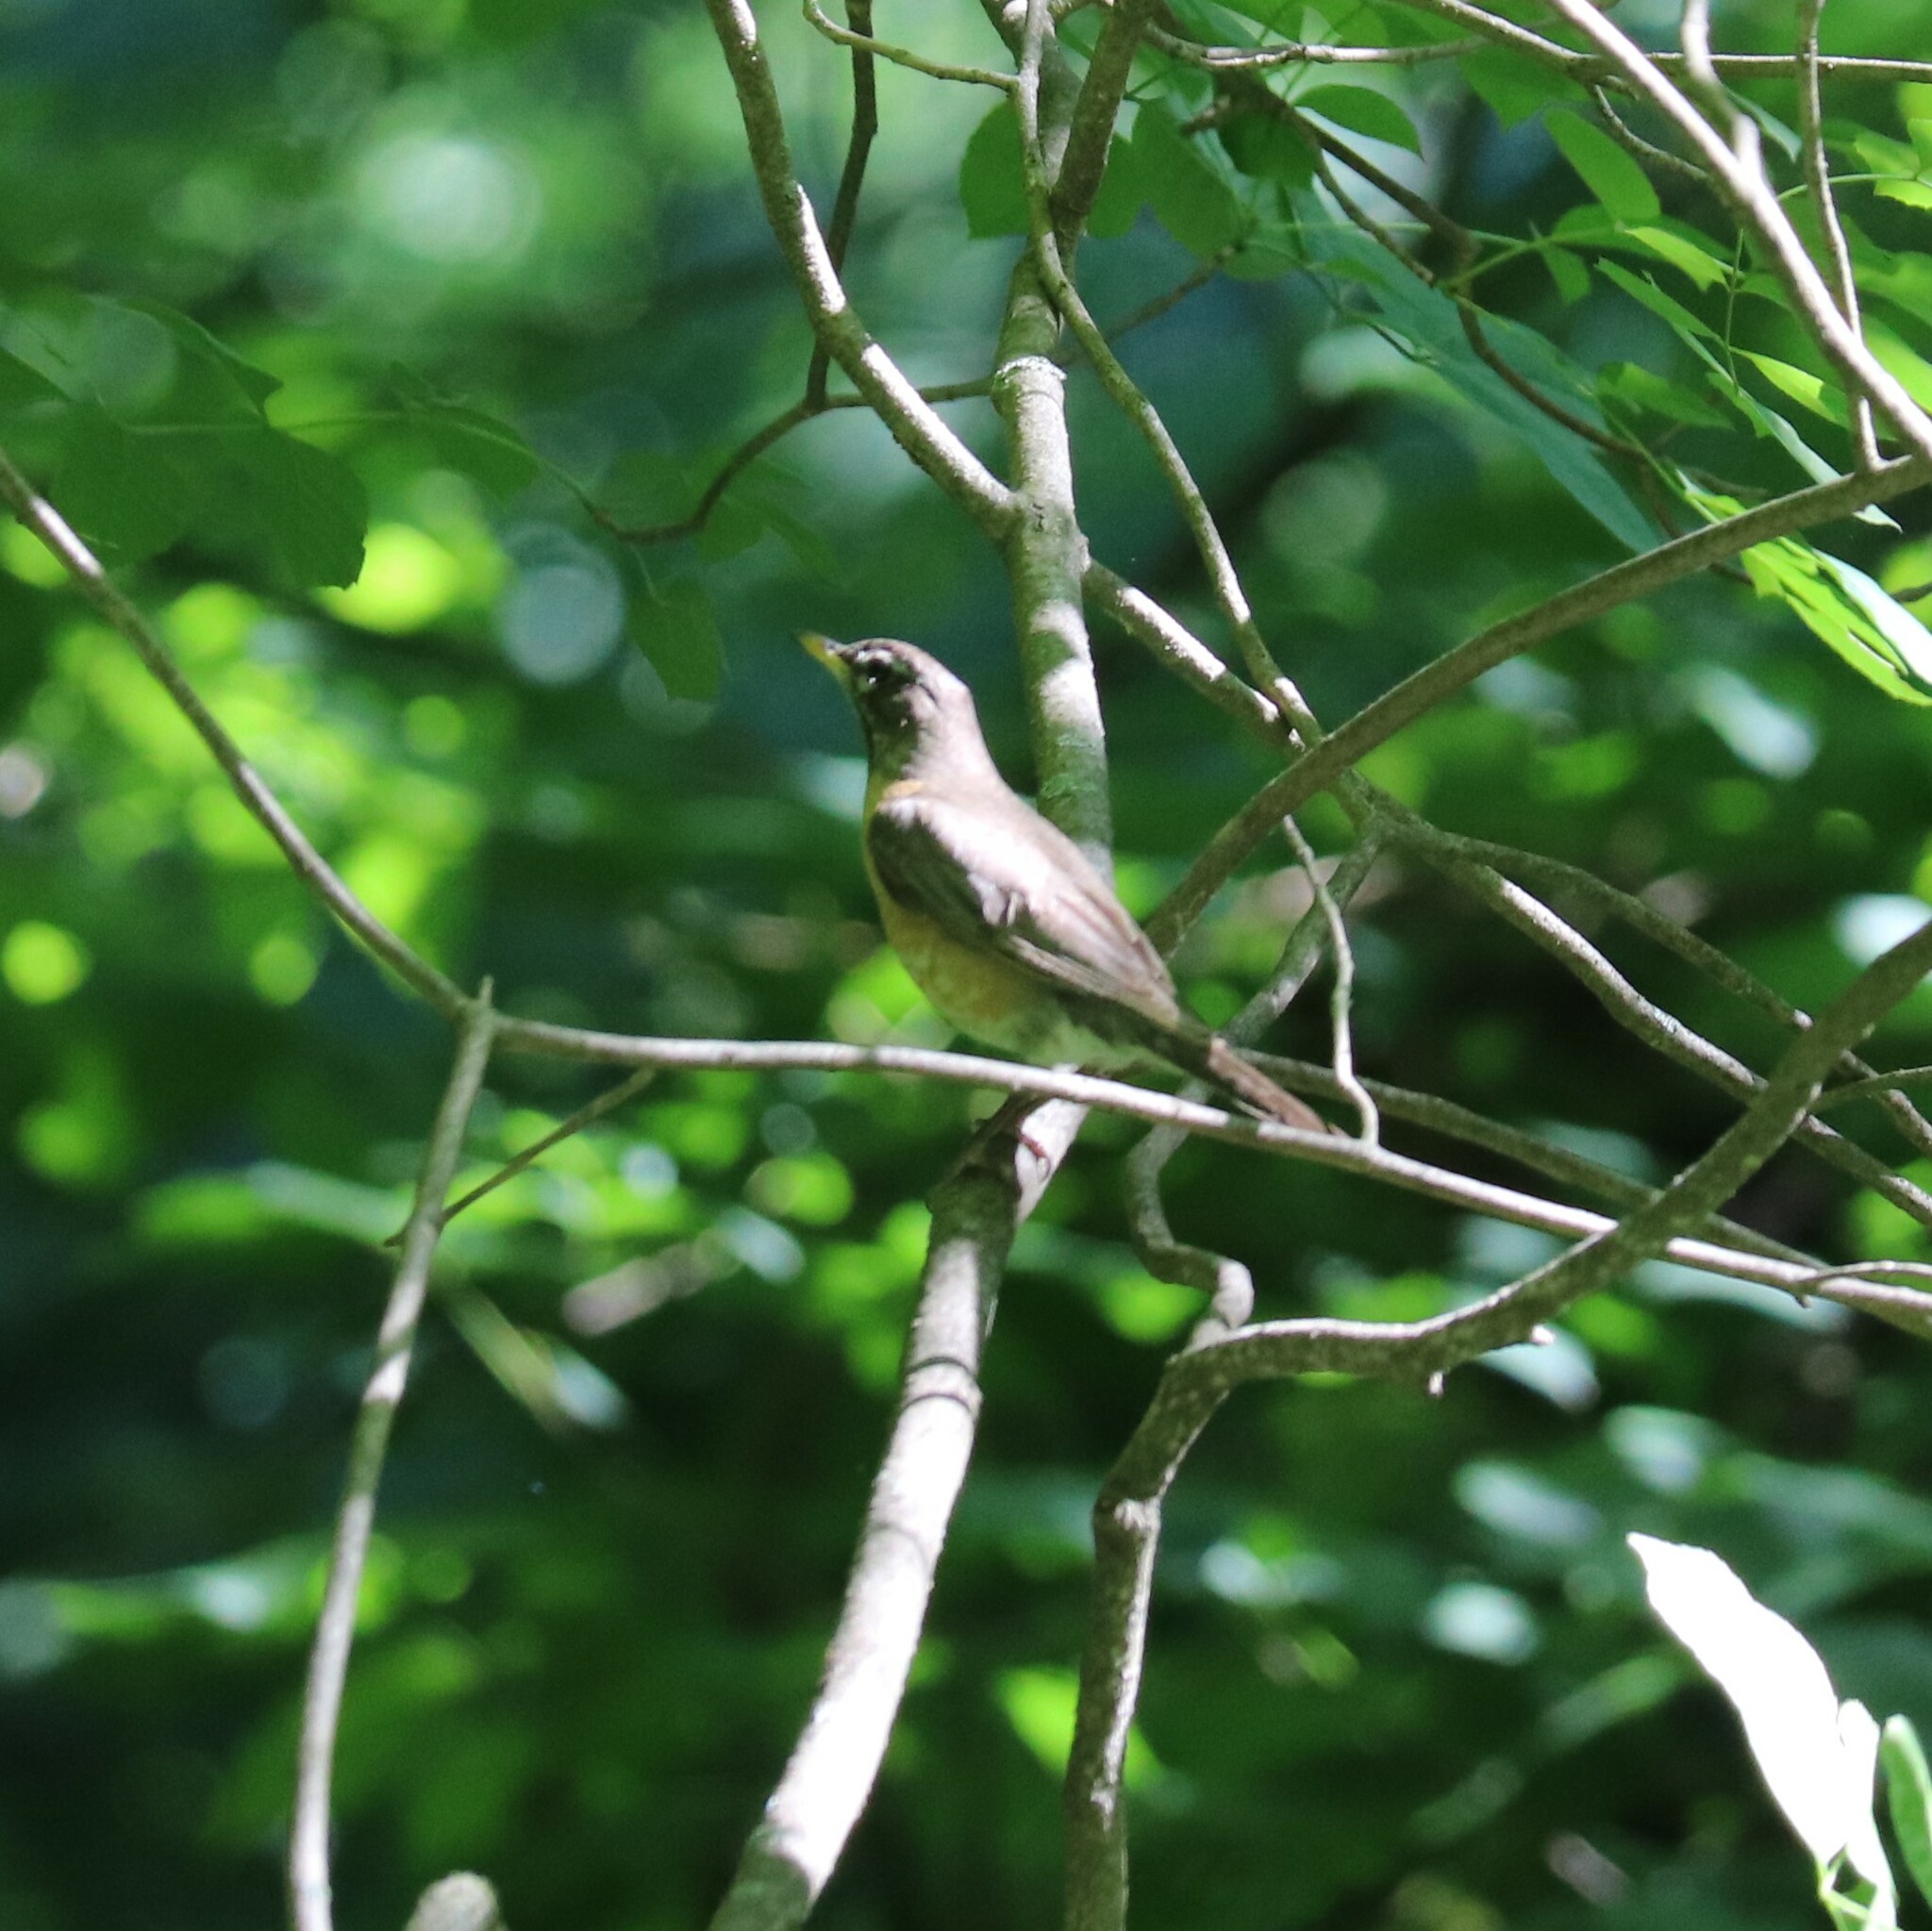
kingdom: Animalia
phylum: Chordata
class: Aves
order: Passeriformes
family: Turdidae
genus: Turdus
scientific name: Turdus migratorius
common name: American robin
